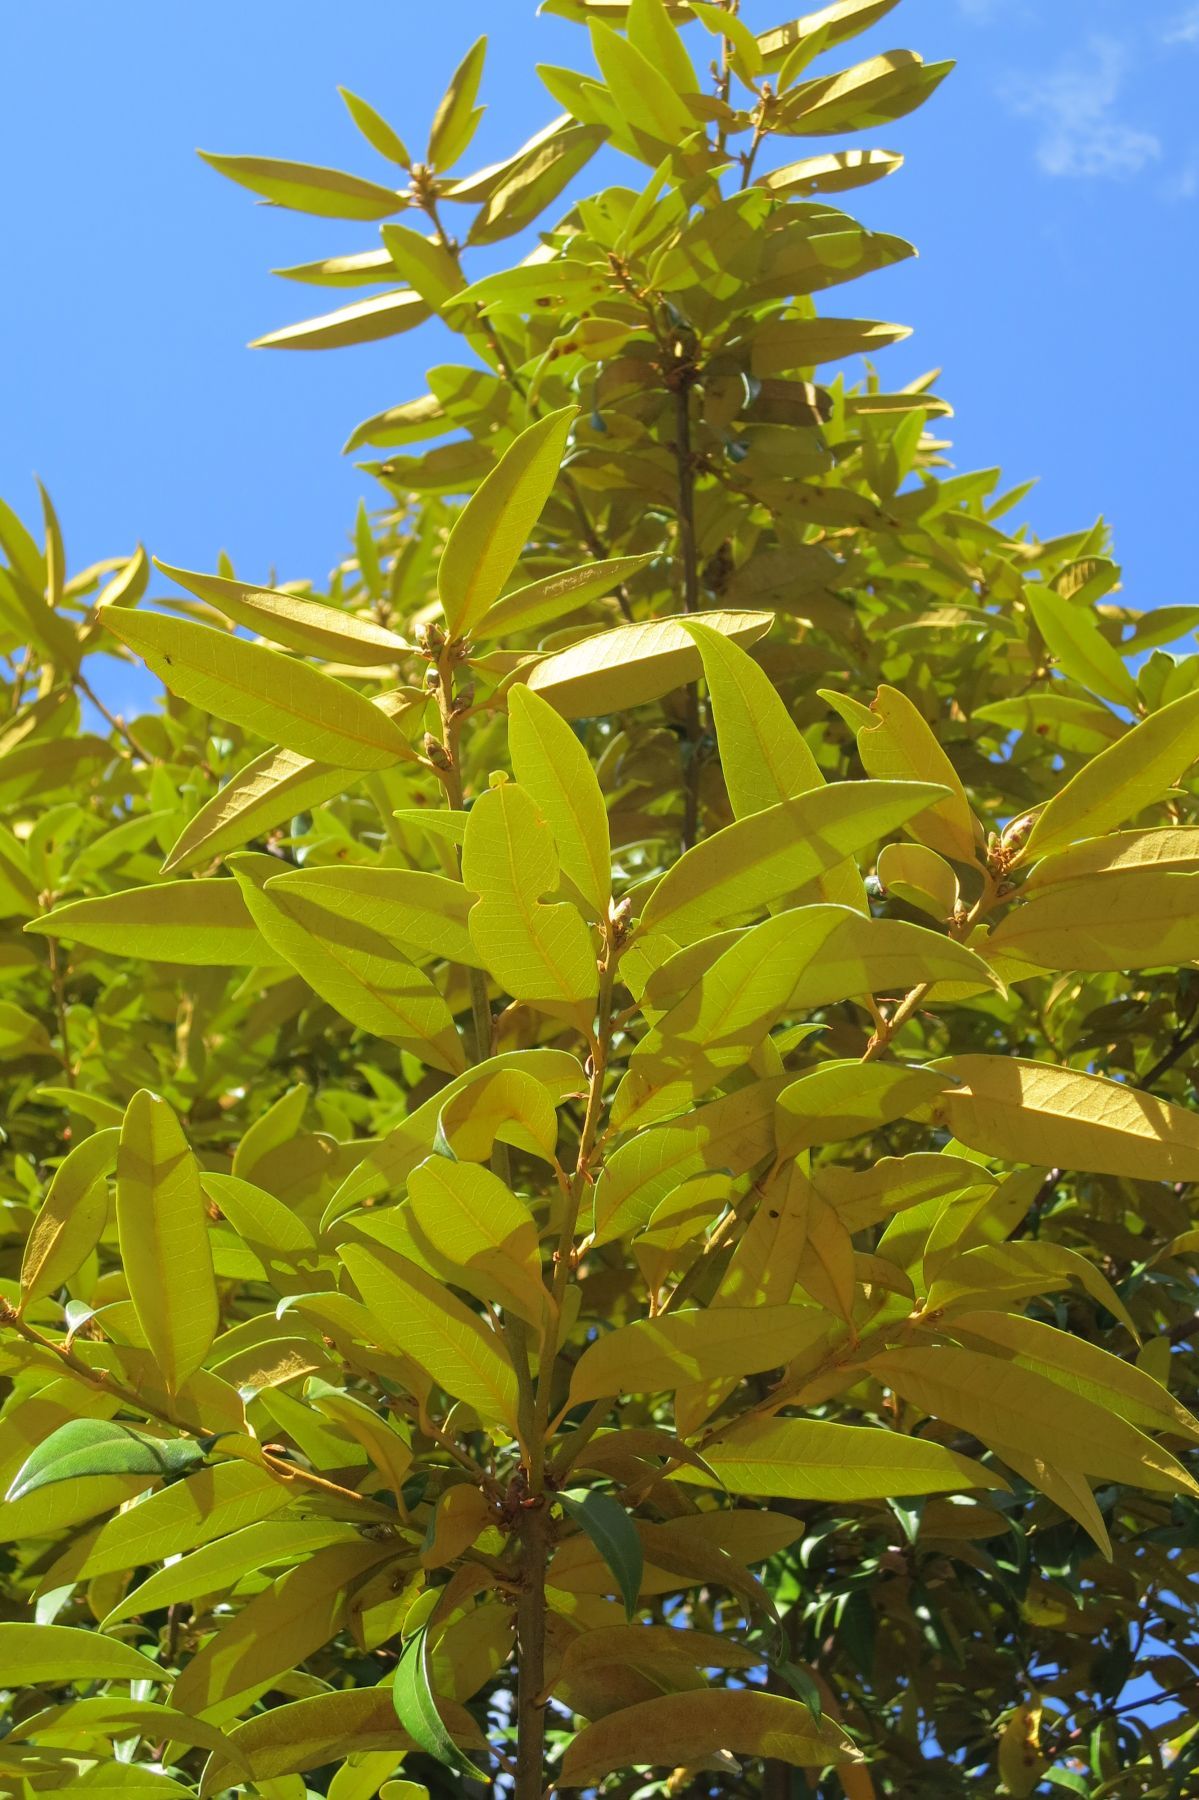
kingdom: Plantae
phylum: Tracheophyta
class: Magnoliopsida
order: Fagales
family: Fagaceae
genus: Chrysolepis
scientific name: Chrysolepis chrysophylla
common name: Giant chinquapin
